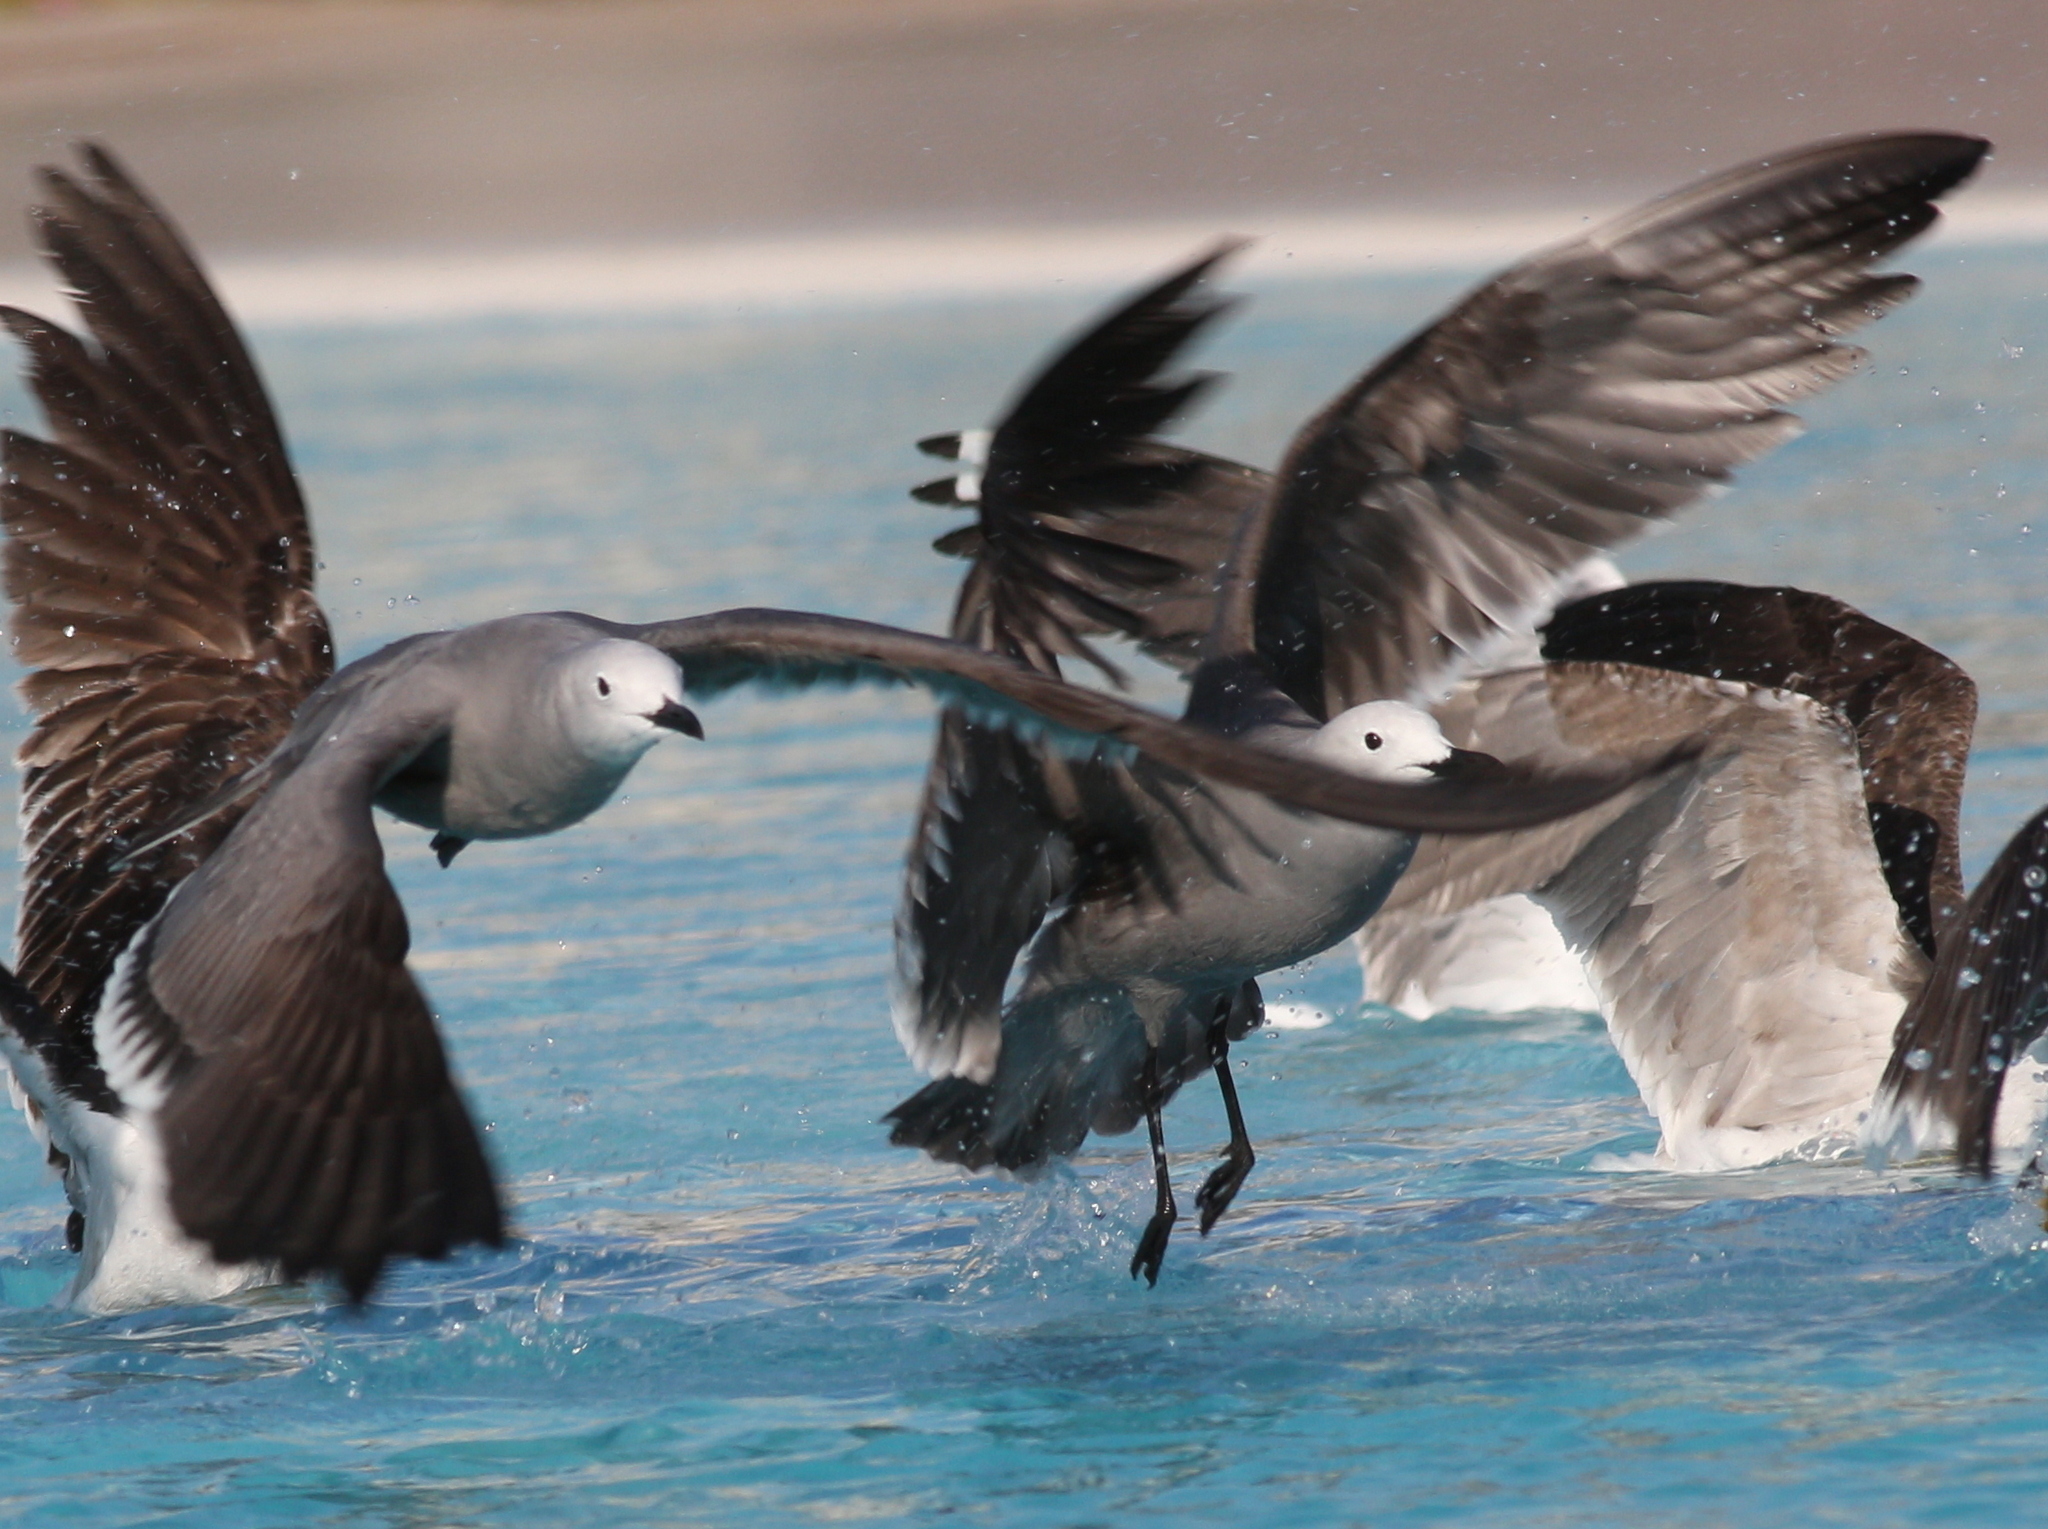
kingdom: Animalia
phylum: Chordata
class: Aves
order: Charadriiformes
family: Laridae
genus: Leucophaeus
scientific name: Leucophaeus modestus
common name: Gray gull
